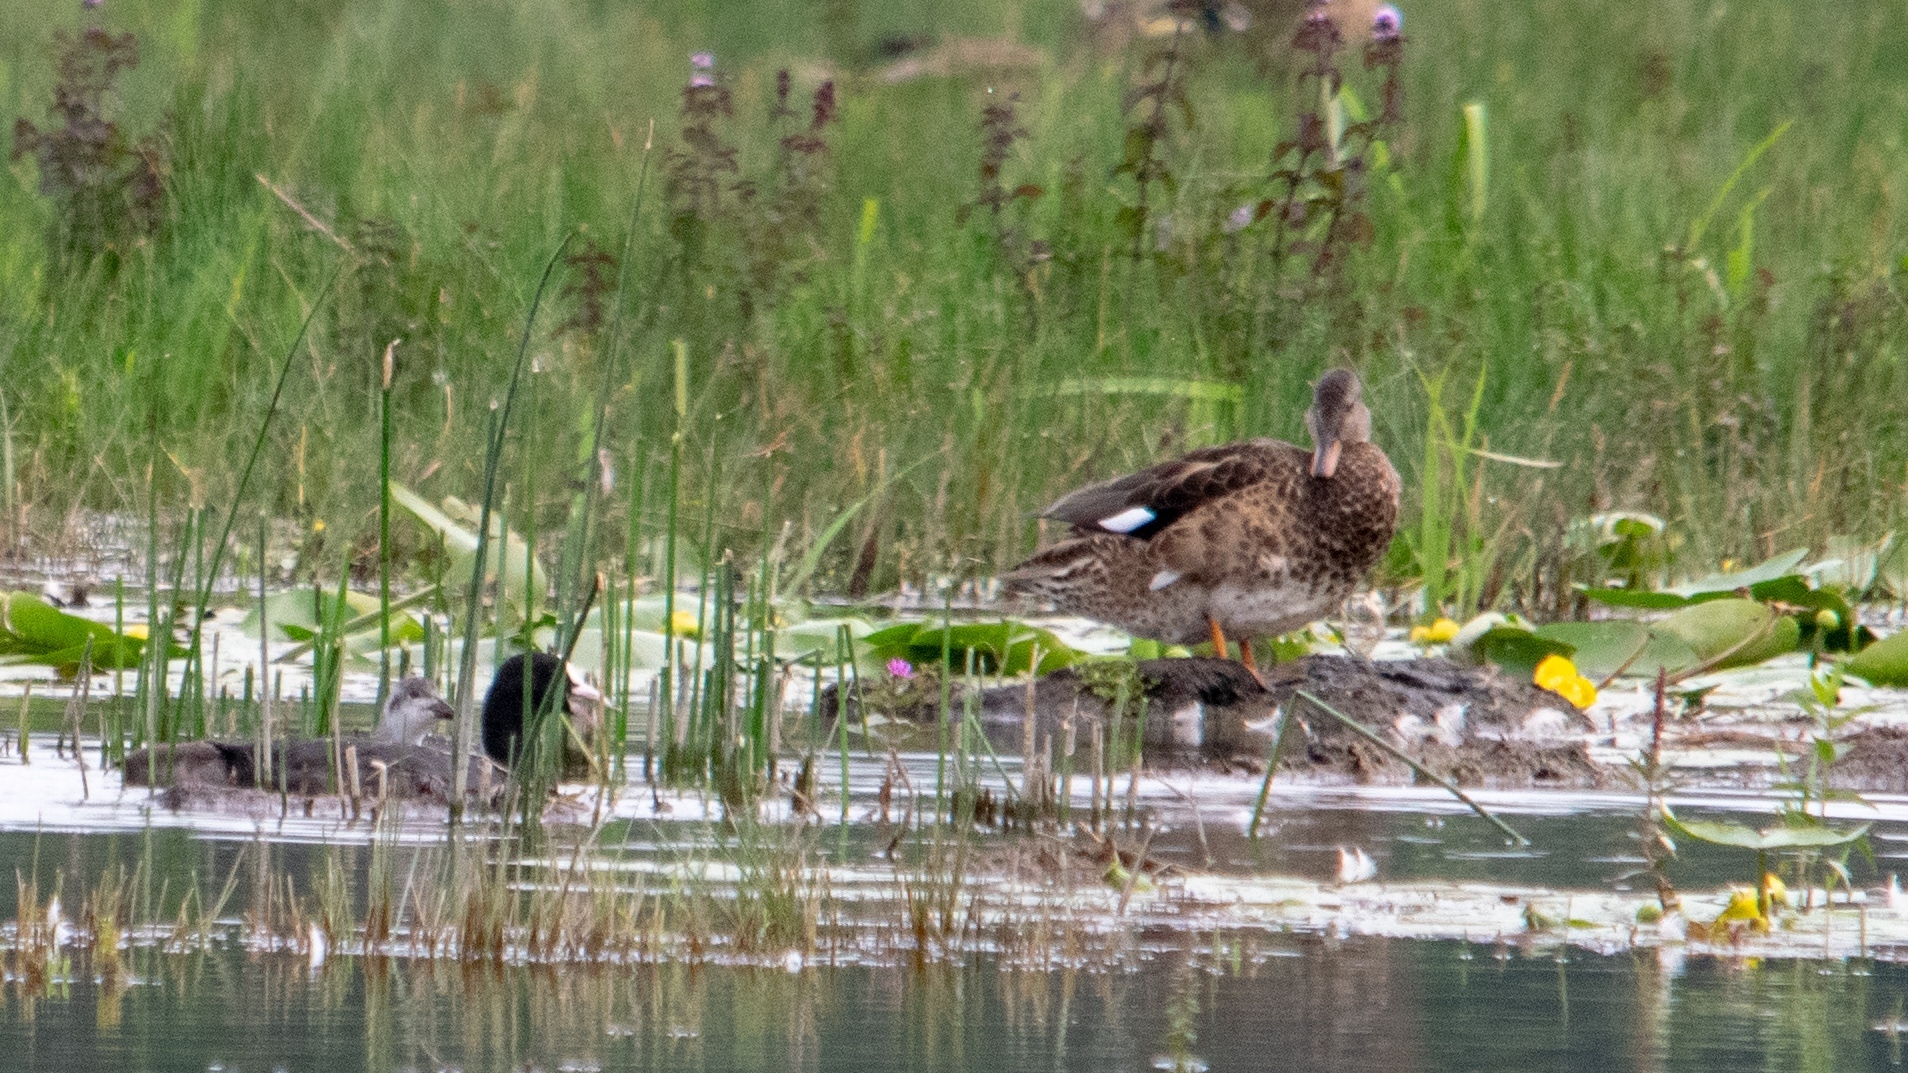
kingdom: Animalia
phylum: Chordata
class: Aves
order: Gruiformes
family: Rallidae
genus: Fulica
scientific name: Fulica atra
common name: Eurasian coot
